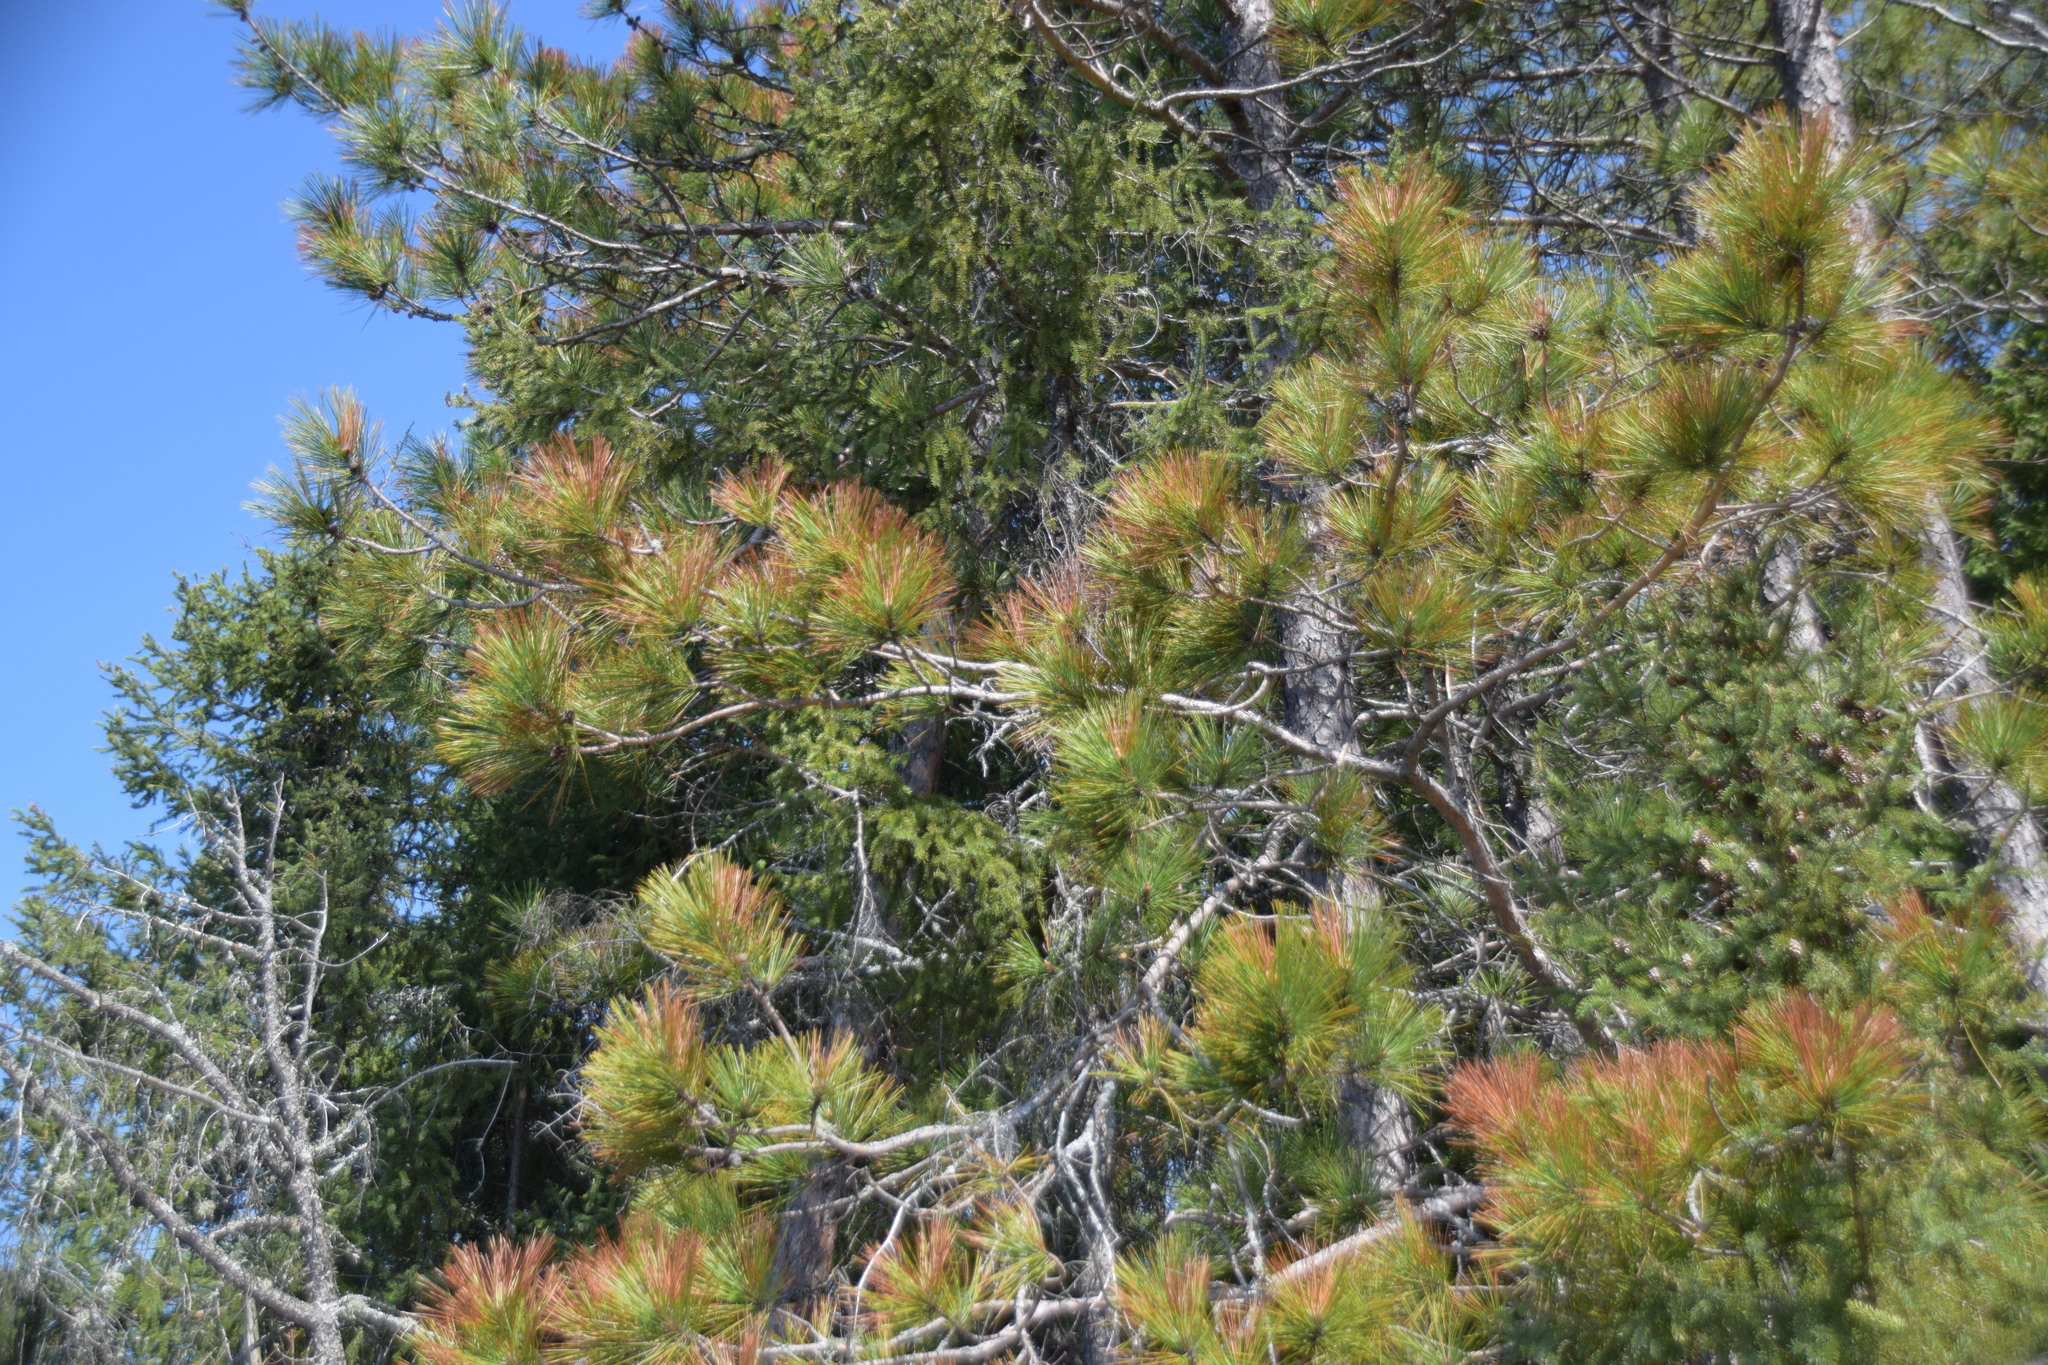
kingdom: Plantae
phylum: Tracheophyta
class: Pinopsida
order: Pinales
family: Pinaceae
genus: Pinus
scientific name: Pinus resinosa
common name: Norway pine
